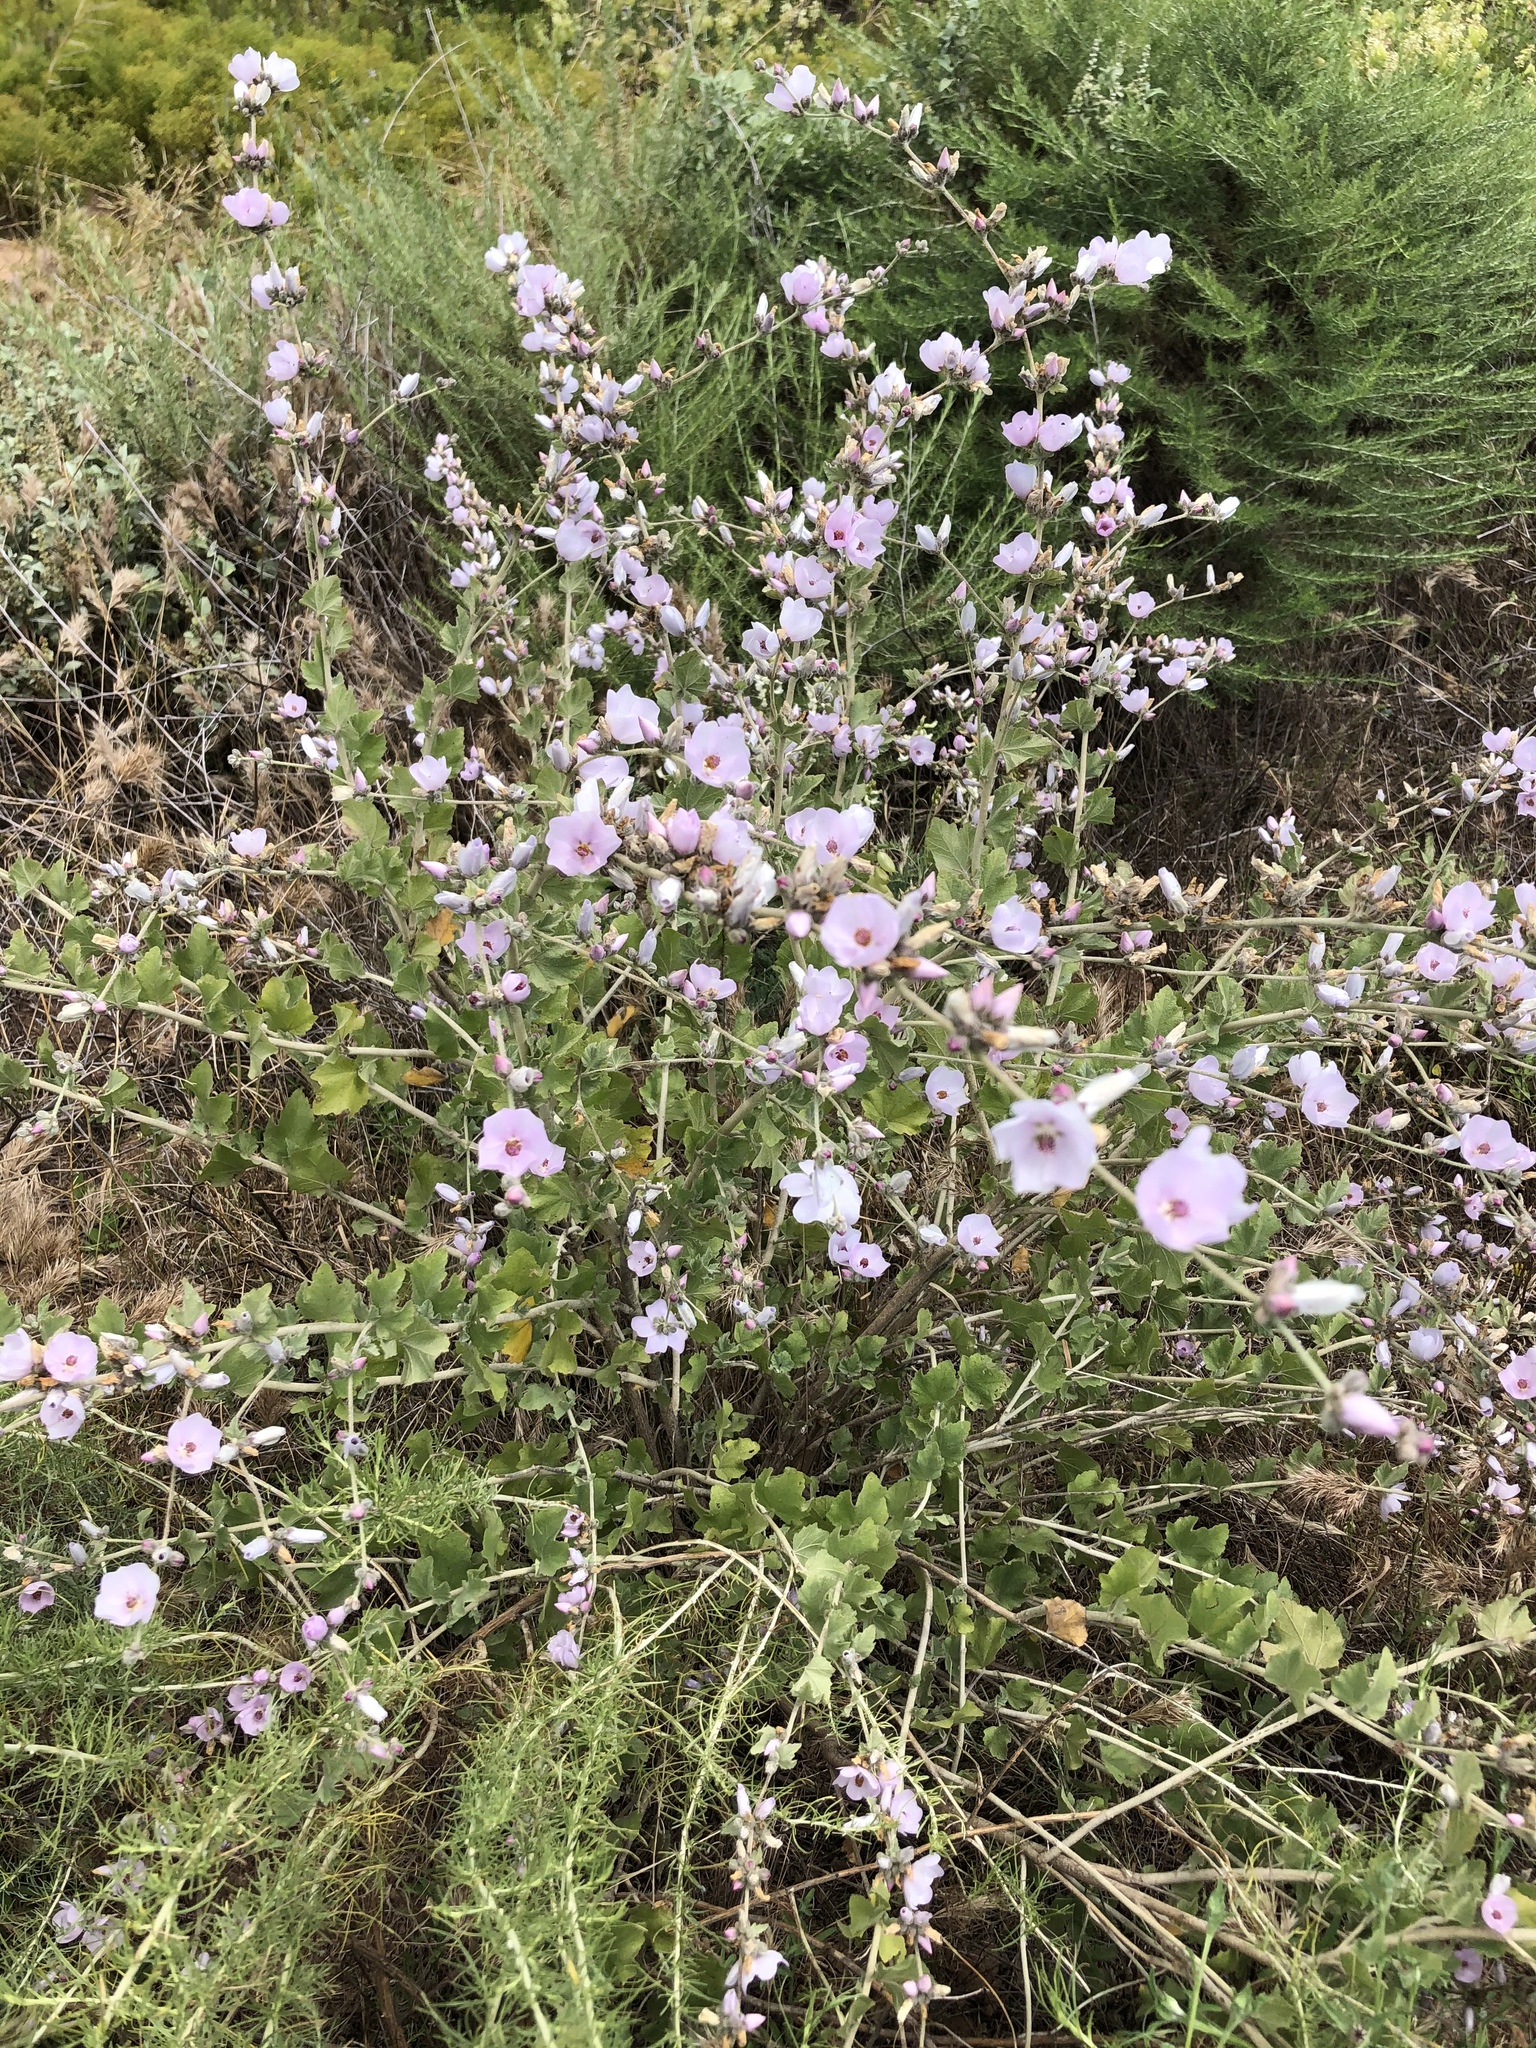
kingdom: Plantae
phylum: Tracheophyta
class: Magnoliopsida
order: Malvales
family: Malvaceae
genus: Malacothamnus
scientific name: Malacothamnus fasciculatus
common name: Sant cruz island bush-mallow
